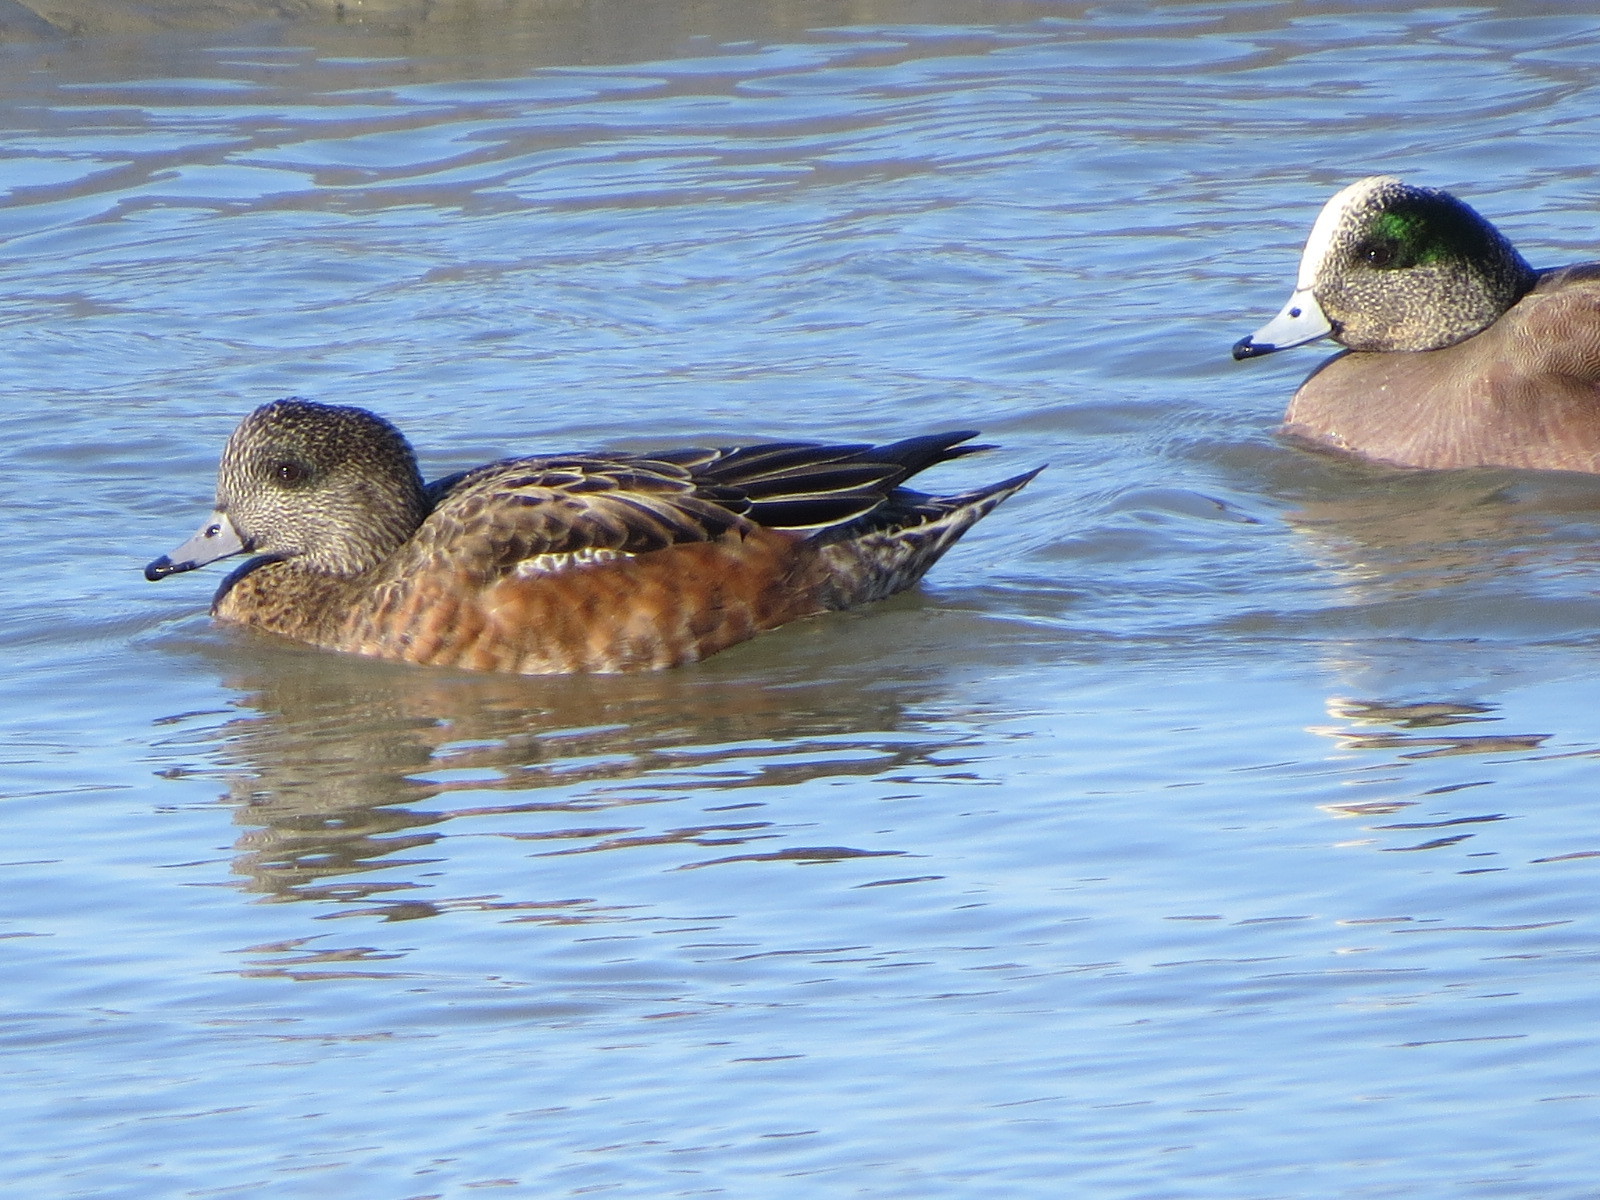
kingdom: Animalia
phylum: Chordata
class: Aves
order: Anseriformes
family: Anatidae
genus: Mareca
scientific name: Mareca americana
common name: American wigeon
